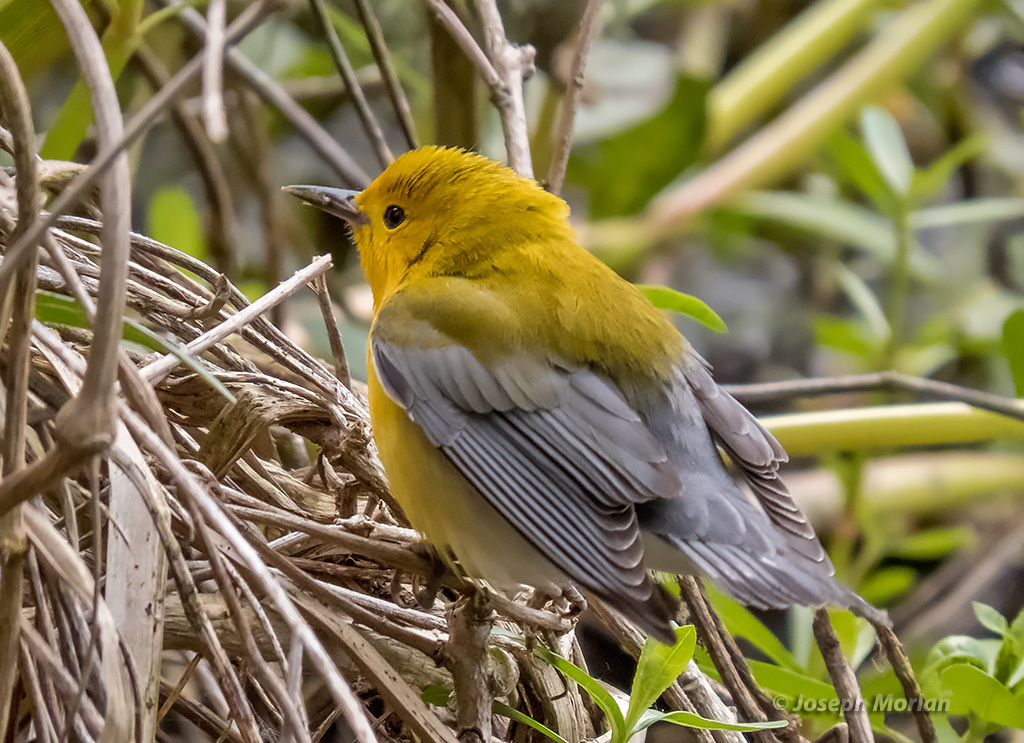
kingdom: Animalia
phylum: Chordata
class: Aves
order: Passeriformes
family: Parulidae
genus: Protonotaria
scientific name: Protonotaria citrea
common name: Prothonotary warbler
